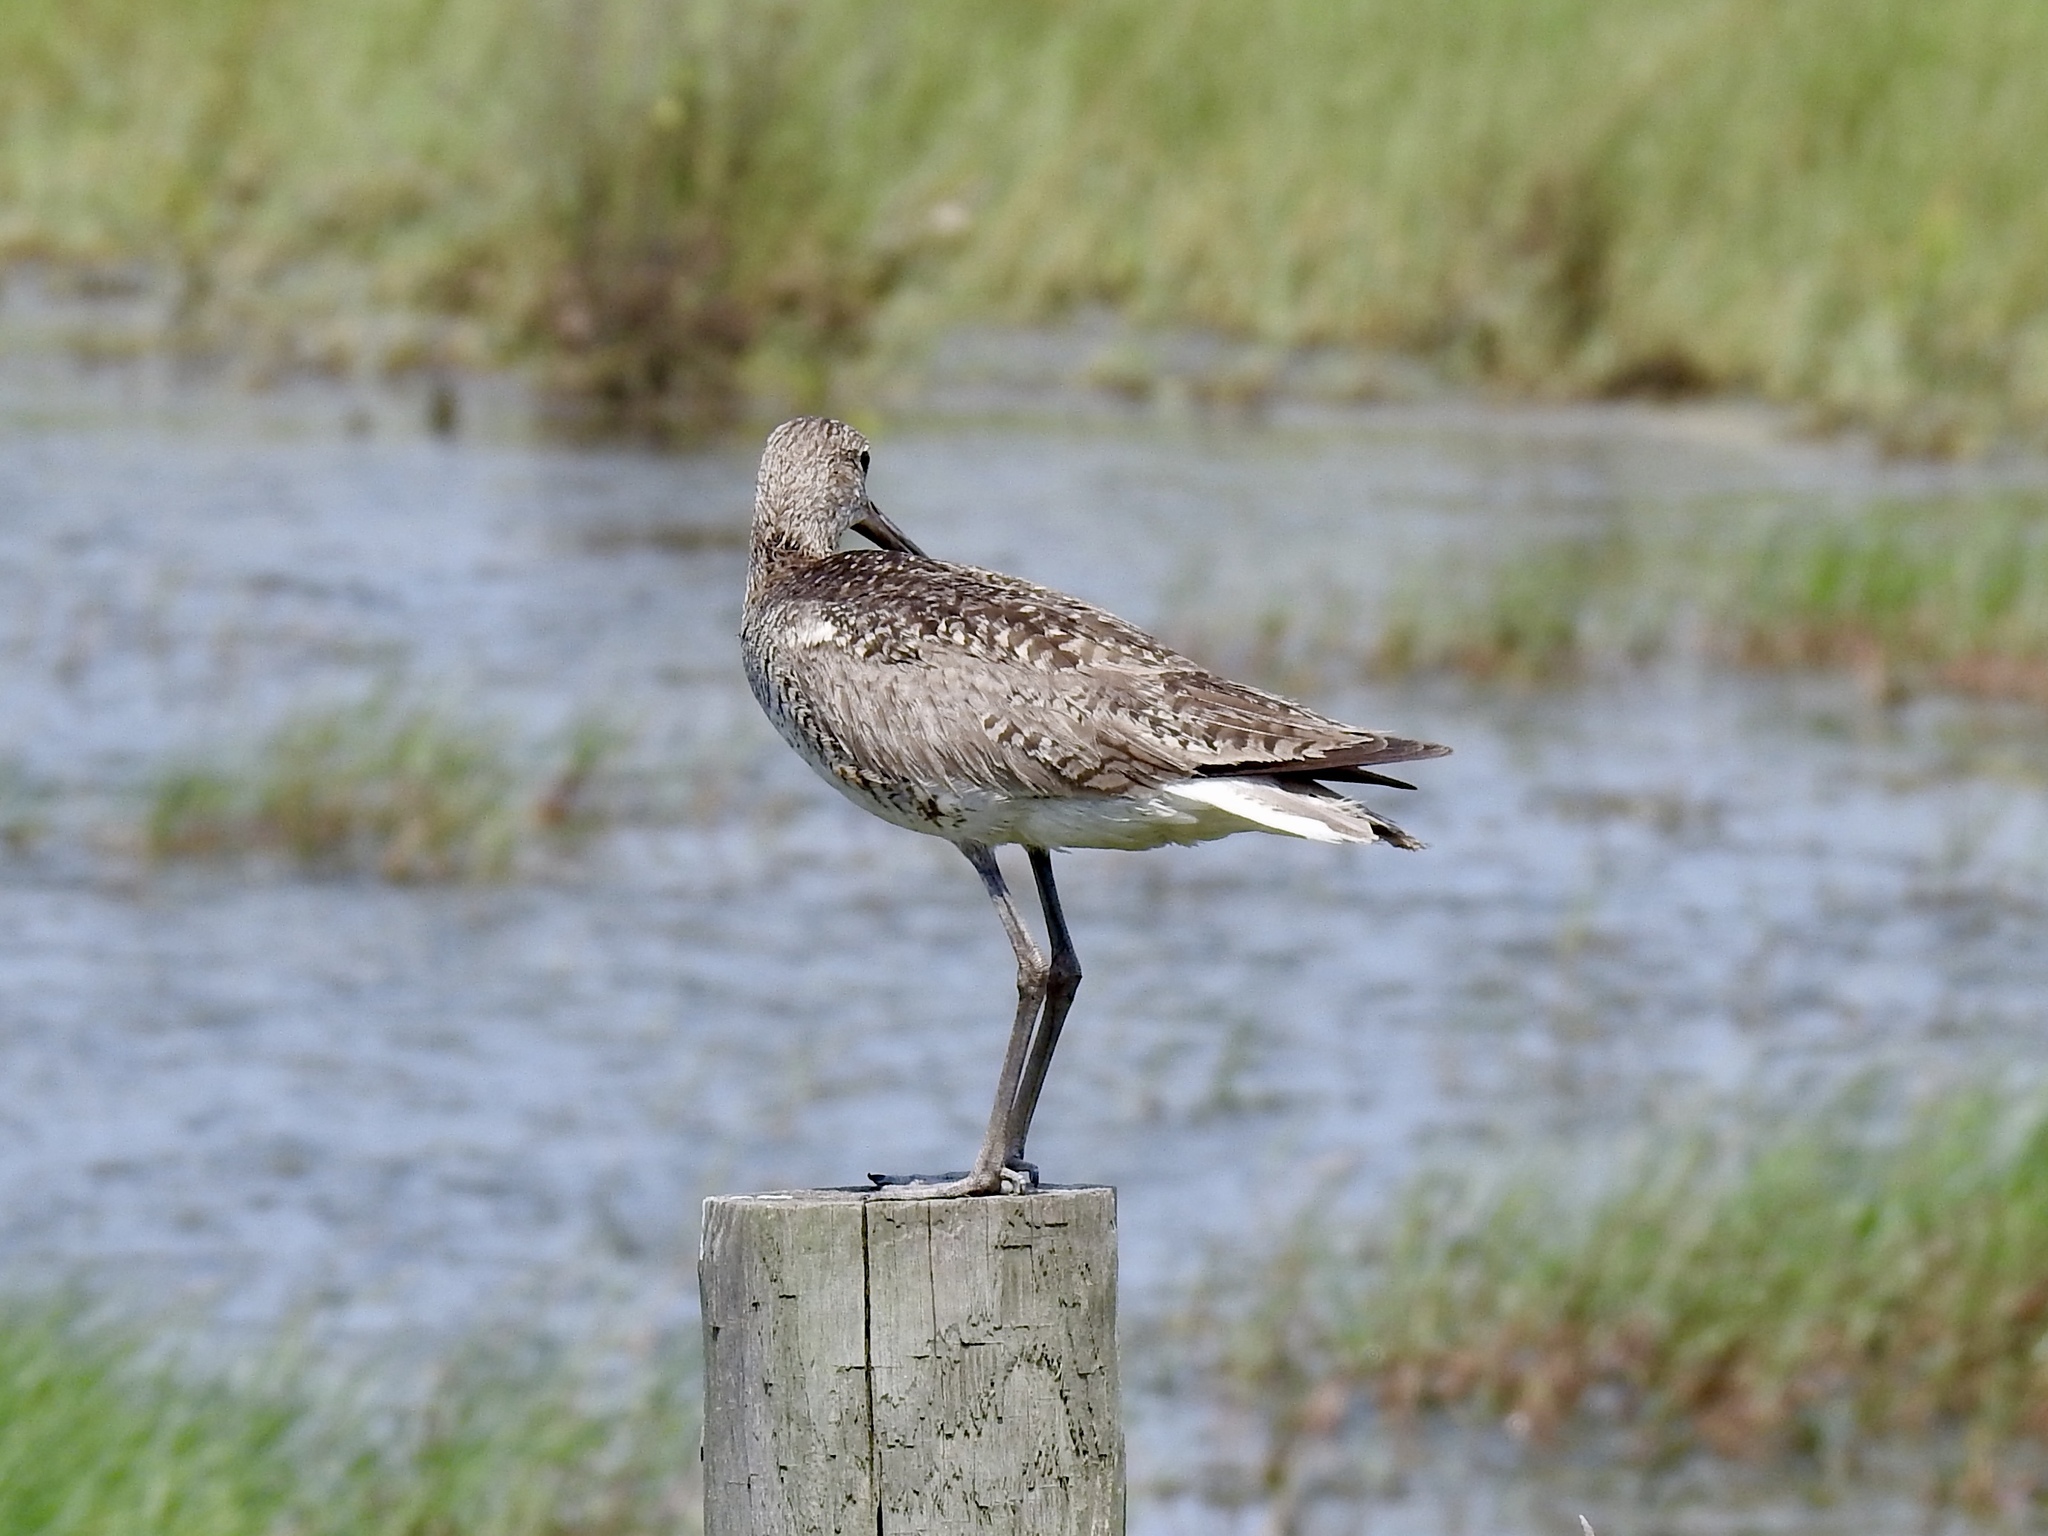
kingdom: Animalia
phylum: Chordata
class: Aves
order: Charadriiformes
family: Scolopacidae
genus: Tringa
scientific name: Tringa semipalmata
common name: Willet
